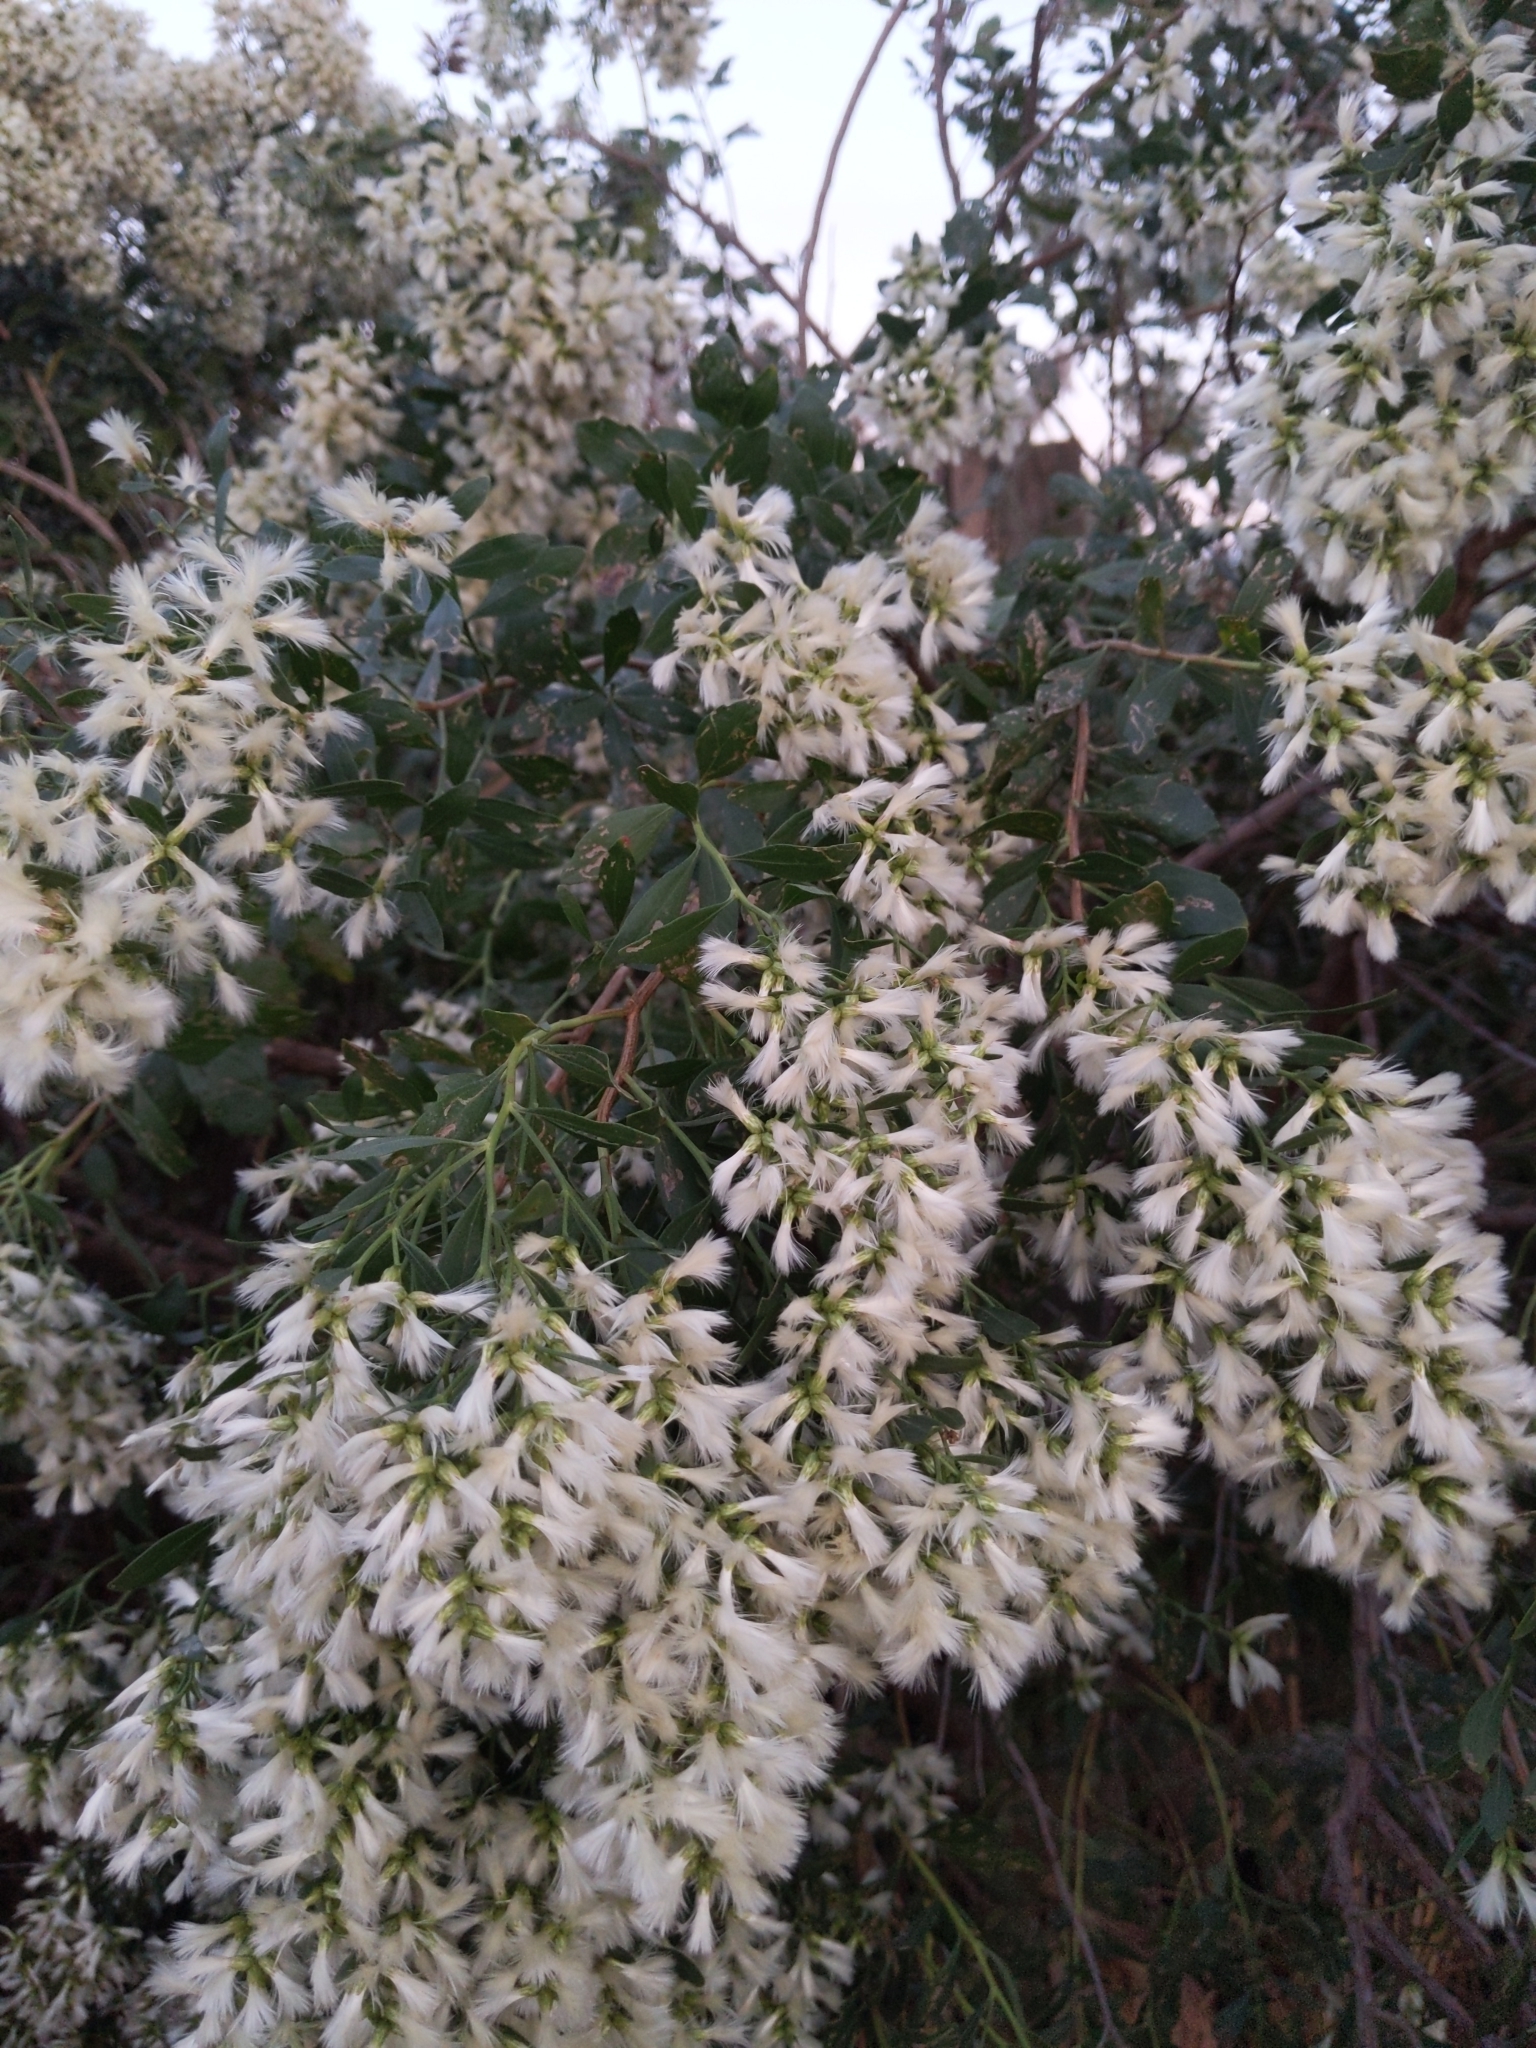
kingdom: Plantae
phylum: Tracheophyta
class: Magnoliopsida
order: Asterales
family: Asteraceae
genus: Baccharis
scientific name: Baccharis halimifolia
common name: Eastern baccharis
